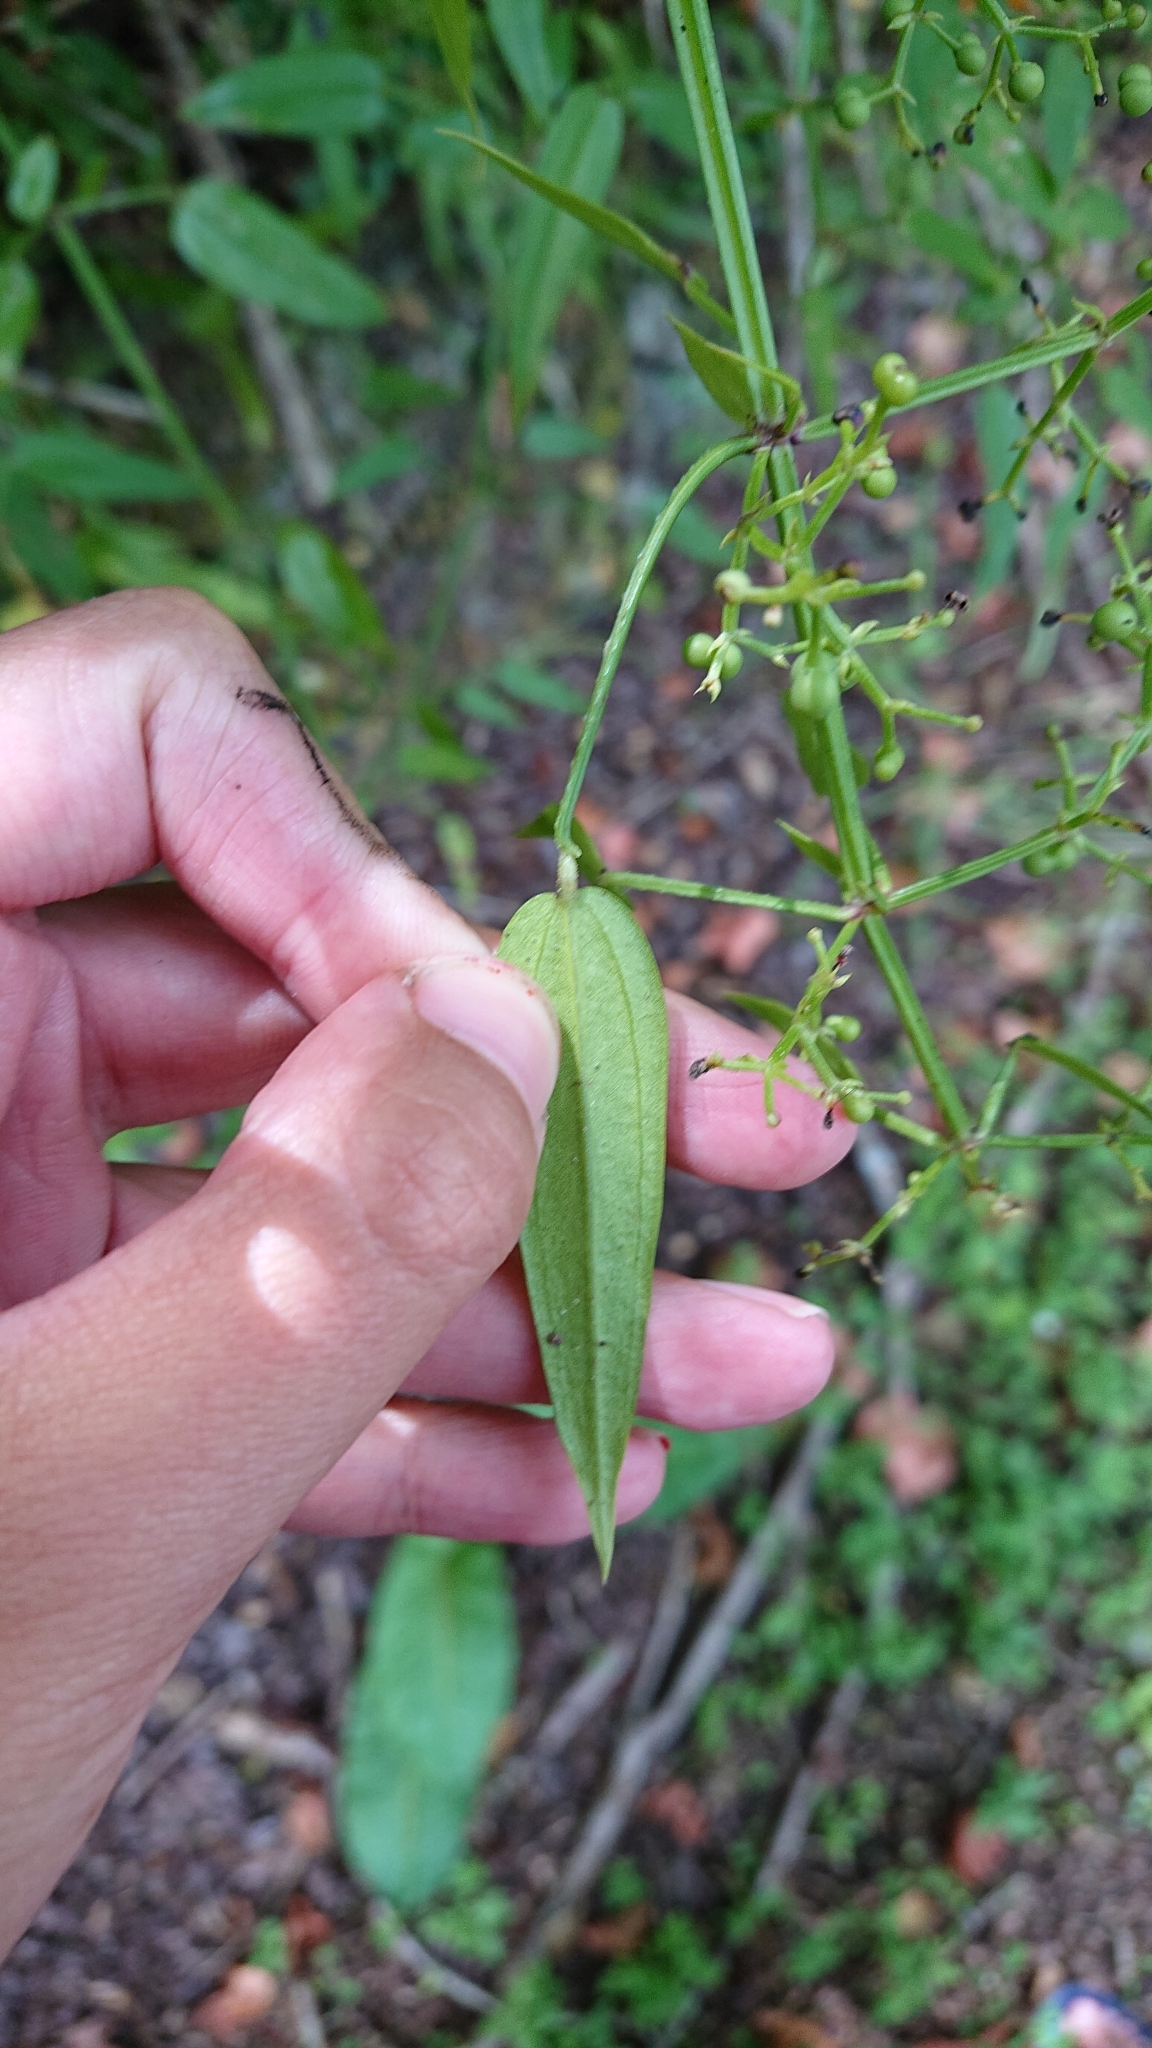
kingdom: Plantae
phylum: Tracheophyta
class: Magnoliopsida
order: Gentianales
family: Rubiaceae
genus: Rubia
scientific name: Rubia alata
